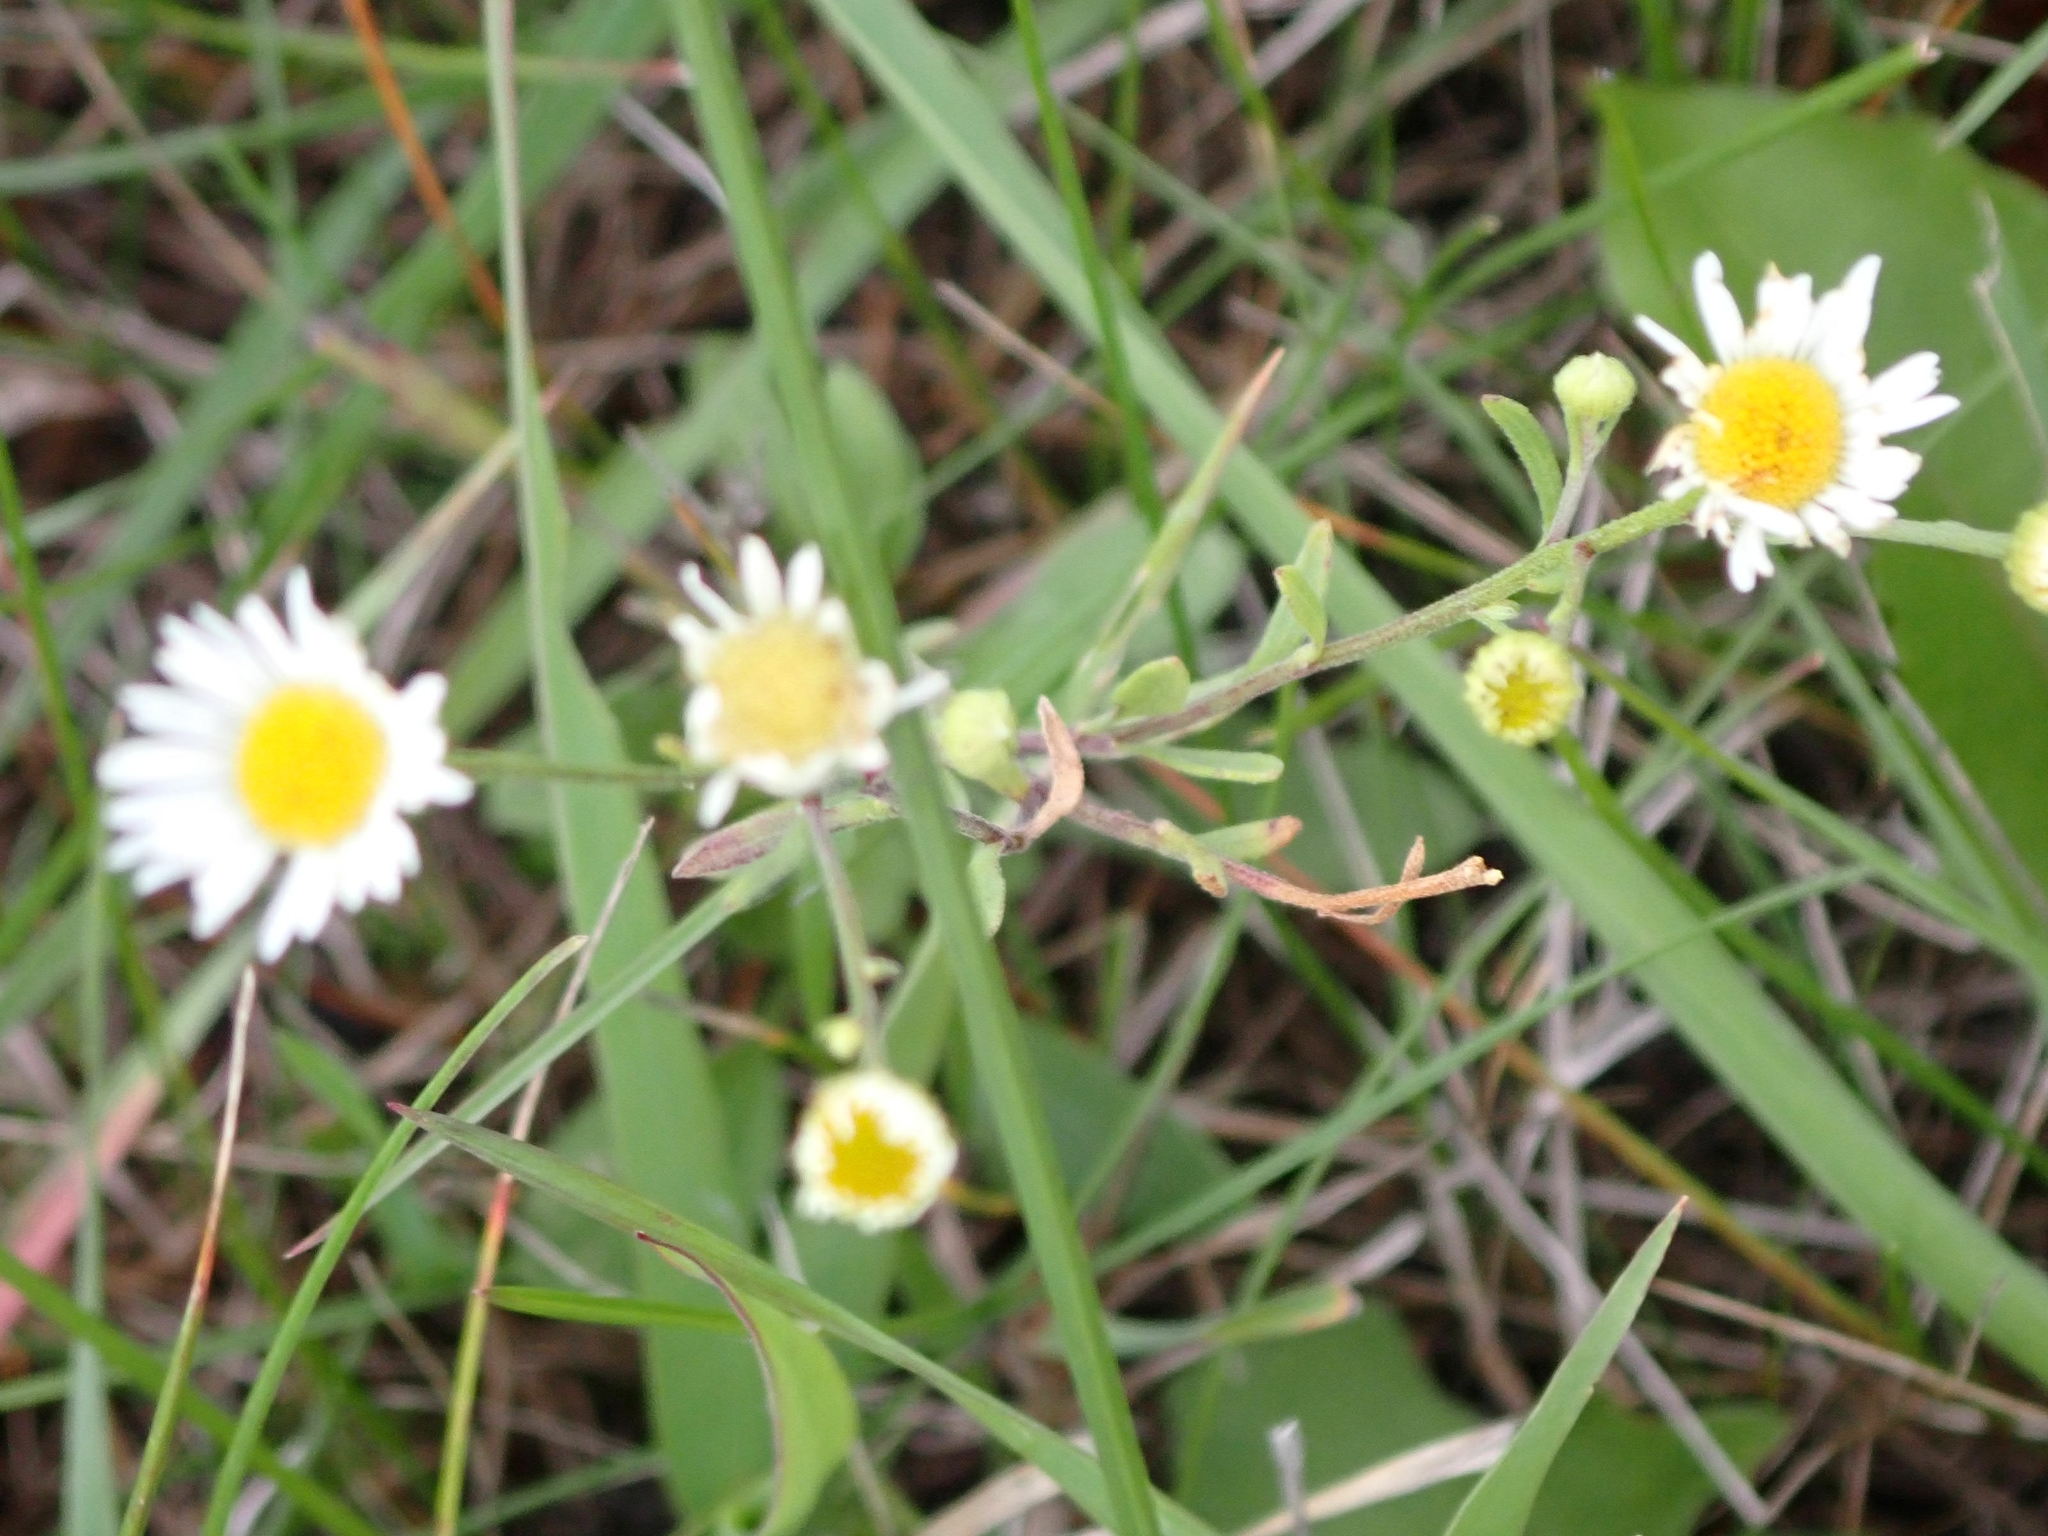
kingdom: Plantae
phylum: Tracheophyta
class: Magnoliopsida
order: Asterales
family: Asteraceae
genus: Erigeron
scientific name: Erigeron strigosus
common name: Common eastern fleabane
